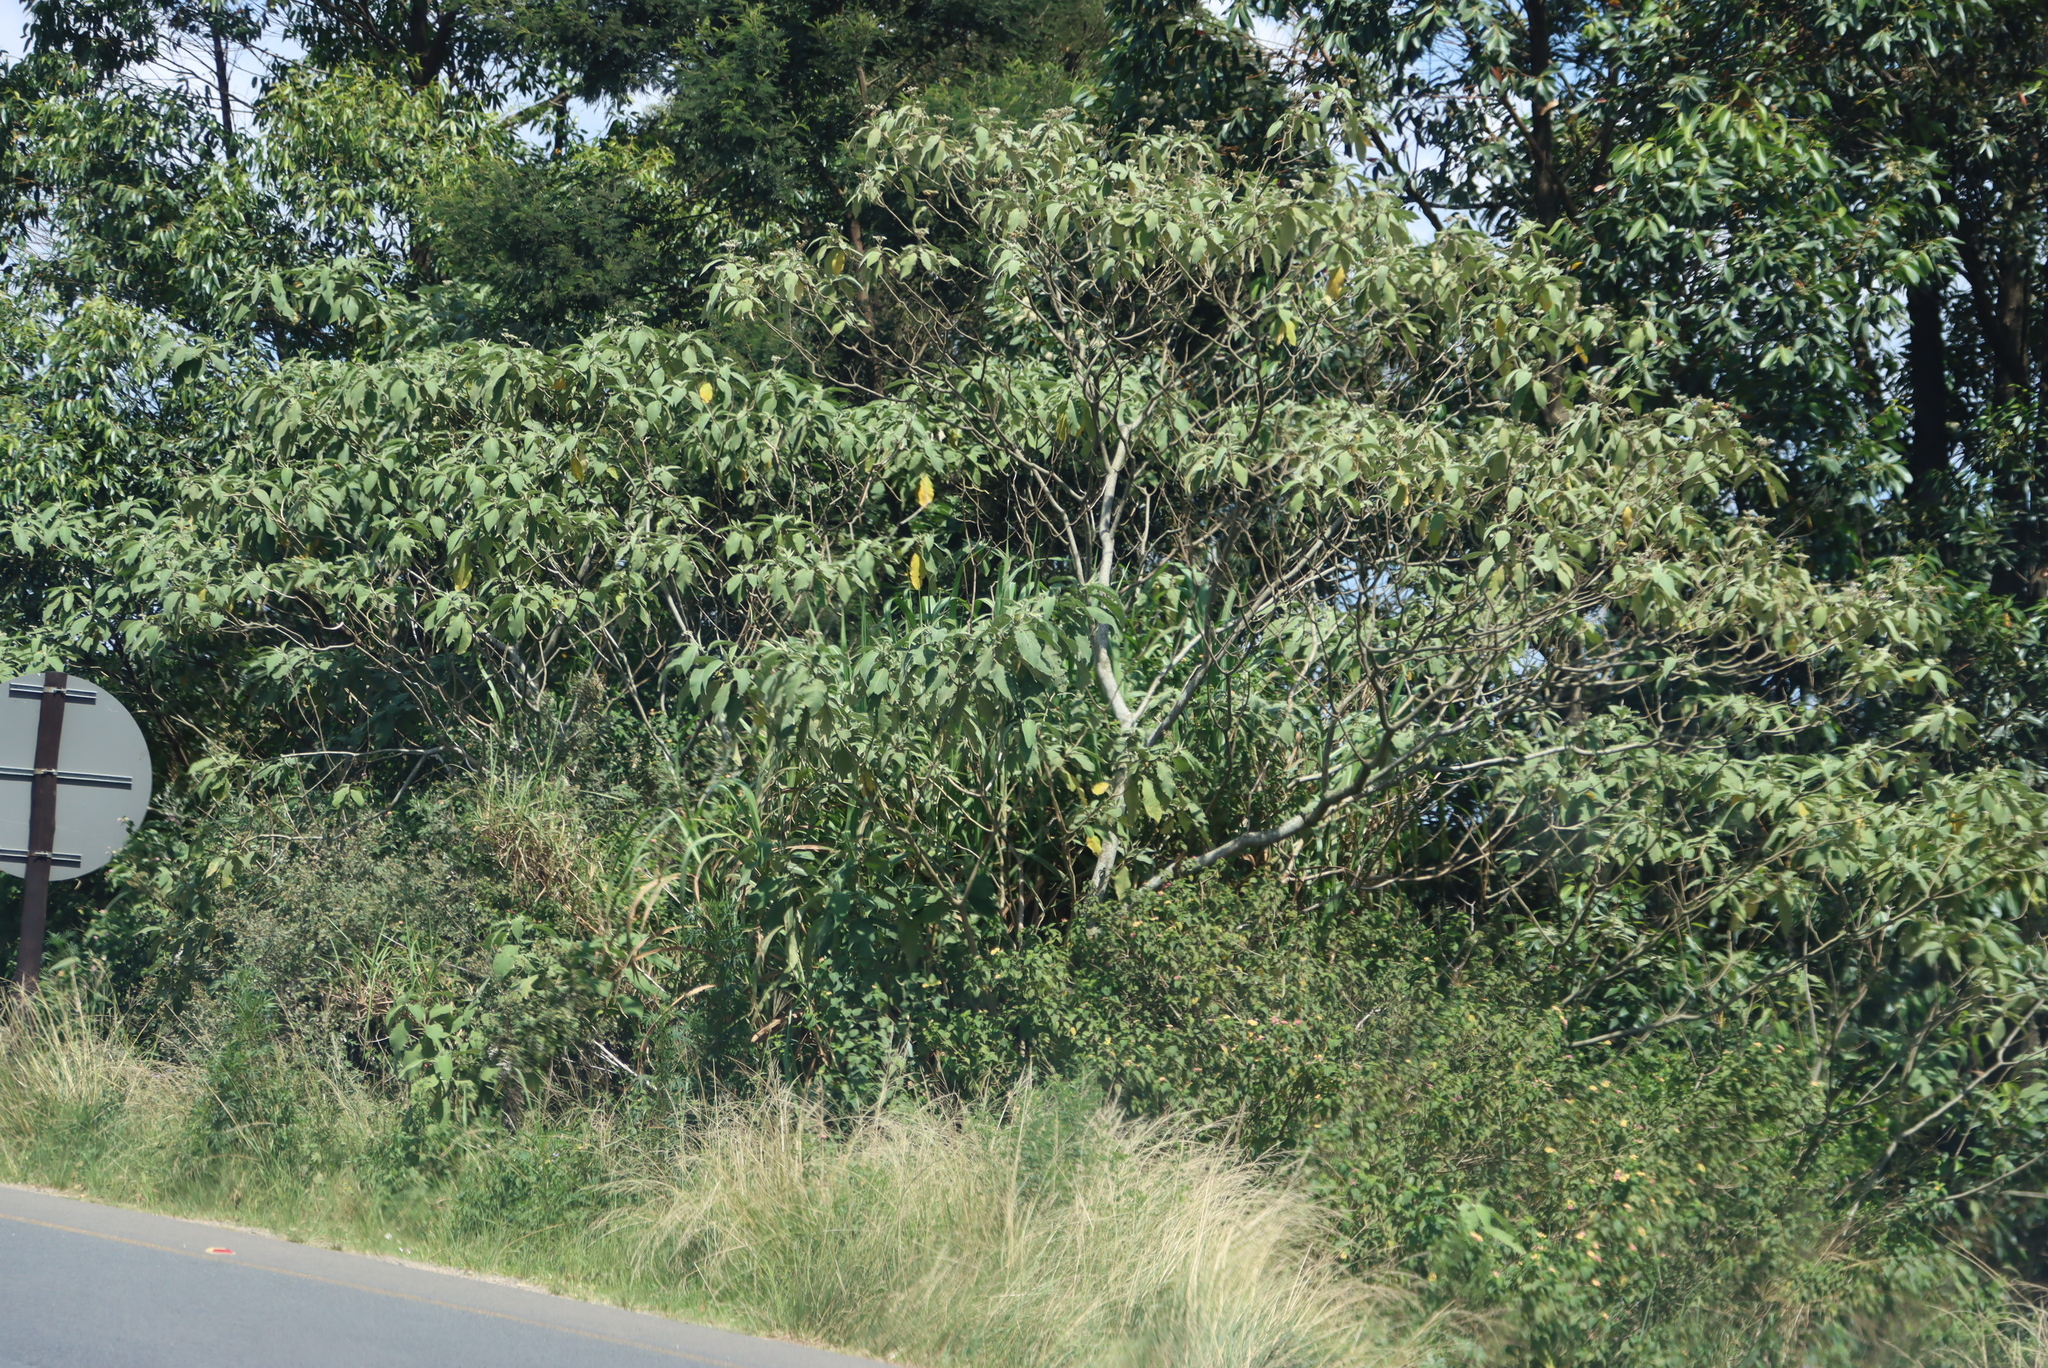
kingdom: Plantae
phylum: Tracheophyta
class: Magnoliopsida
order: Solanales
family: Solanaceae
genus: Solanum
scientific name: Solanum mauritianum
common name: Earleaf nightshade
